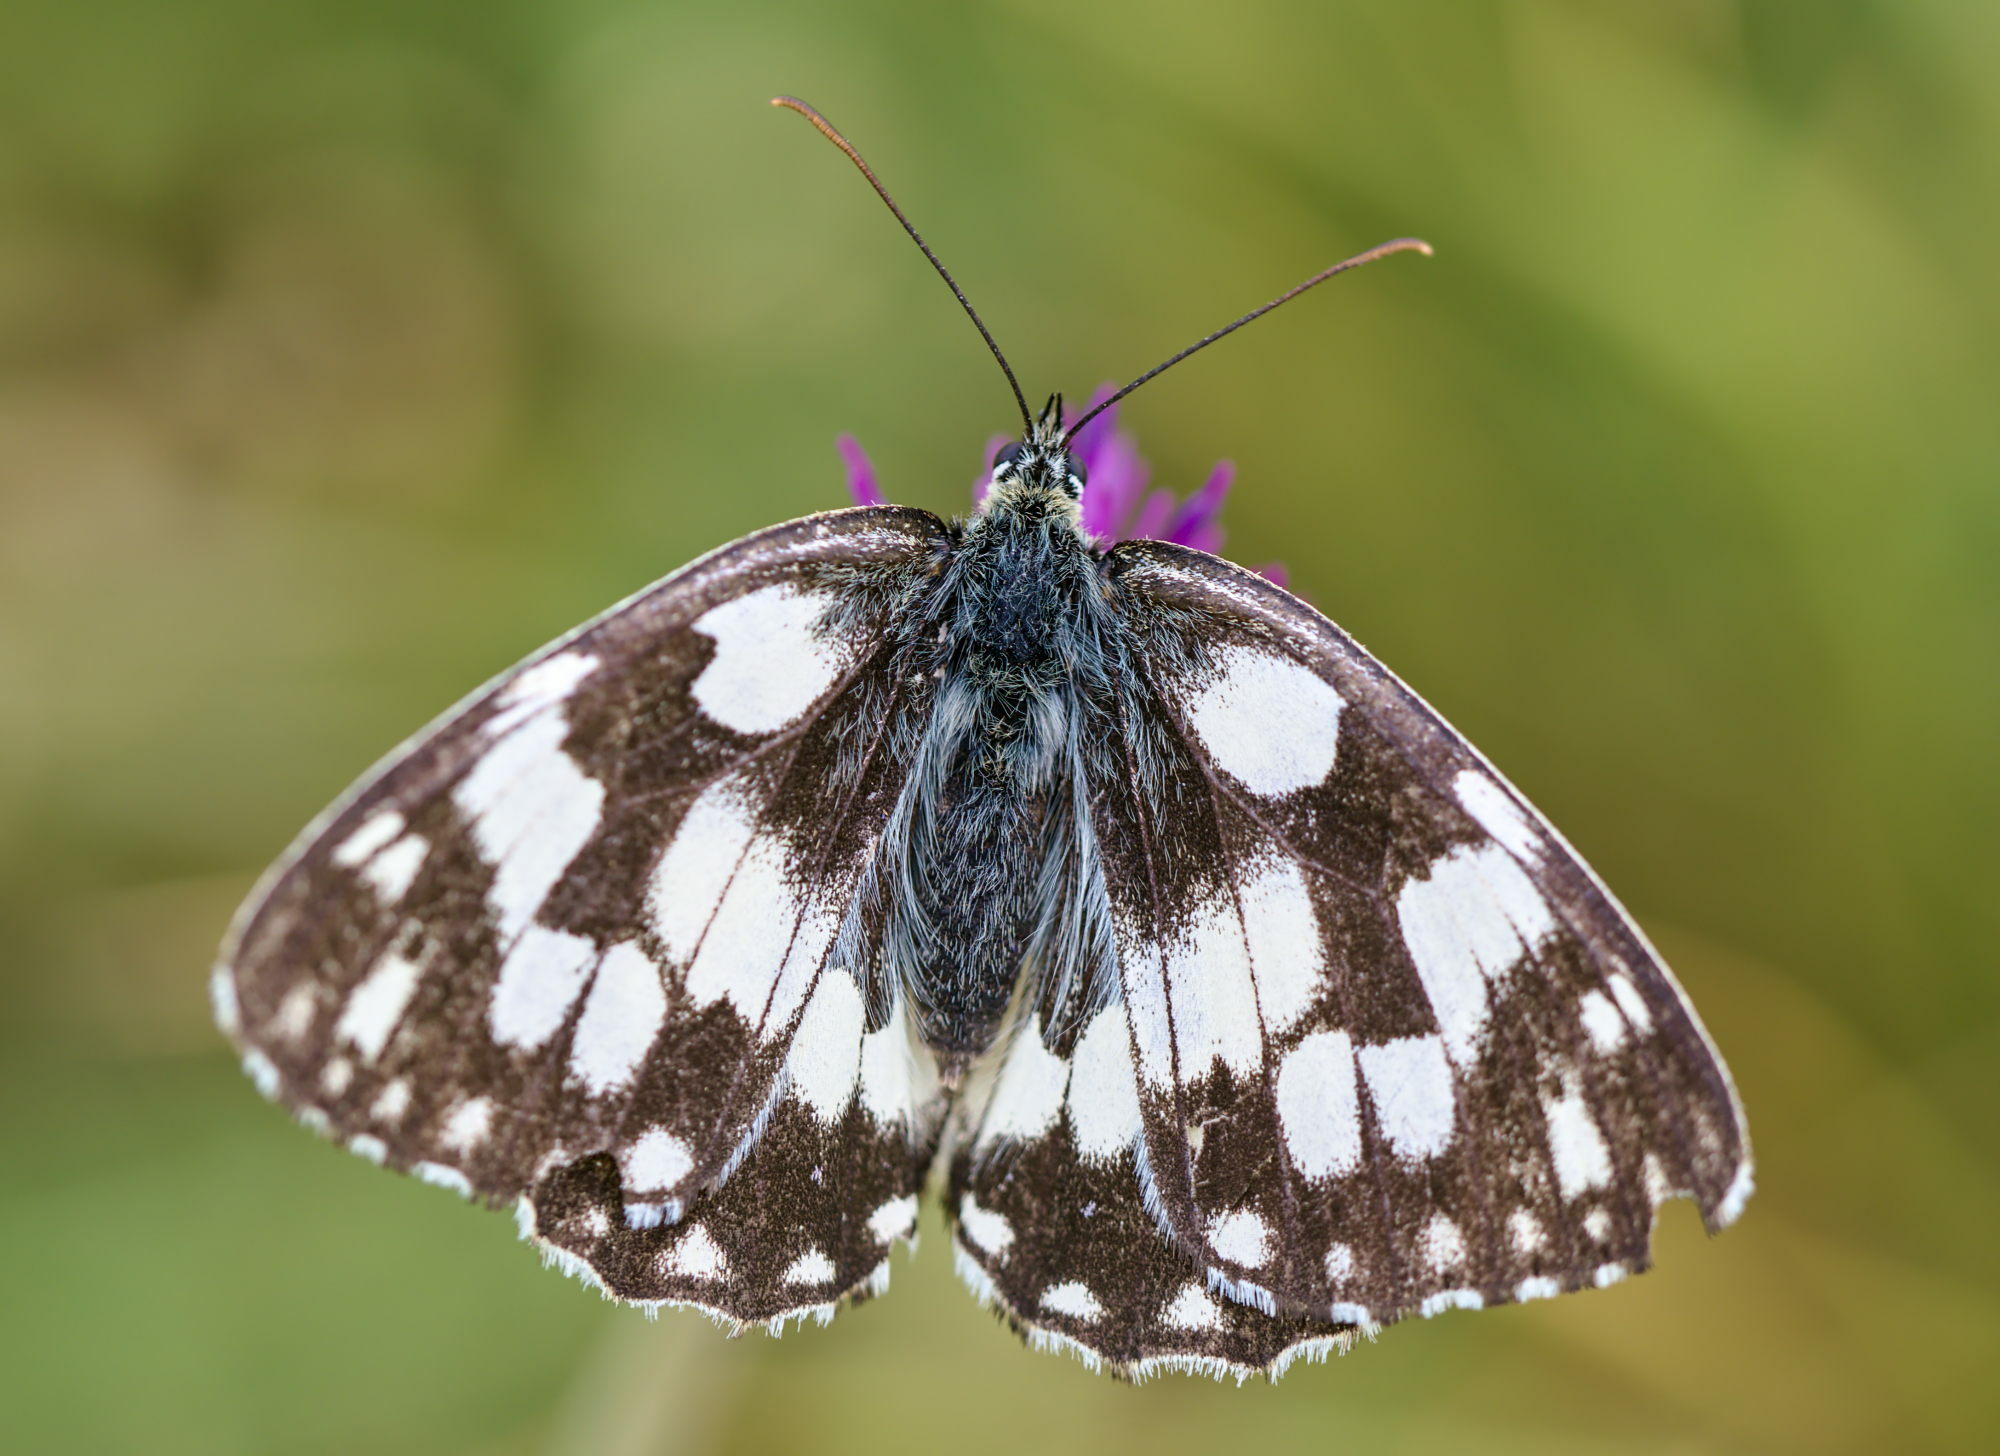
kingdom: Animalia
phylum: Arthropoda
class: Insecta
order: Lepidoptera
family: Nymphalidae
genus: Melanargia
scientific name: Melanargia galathea
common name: Marbled white
